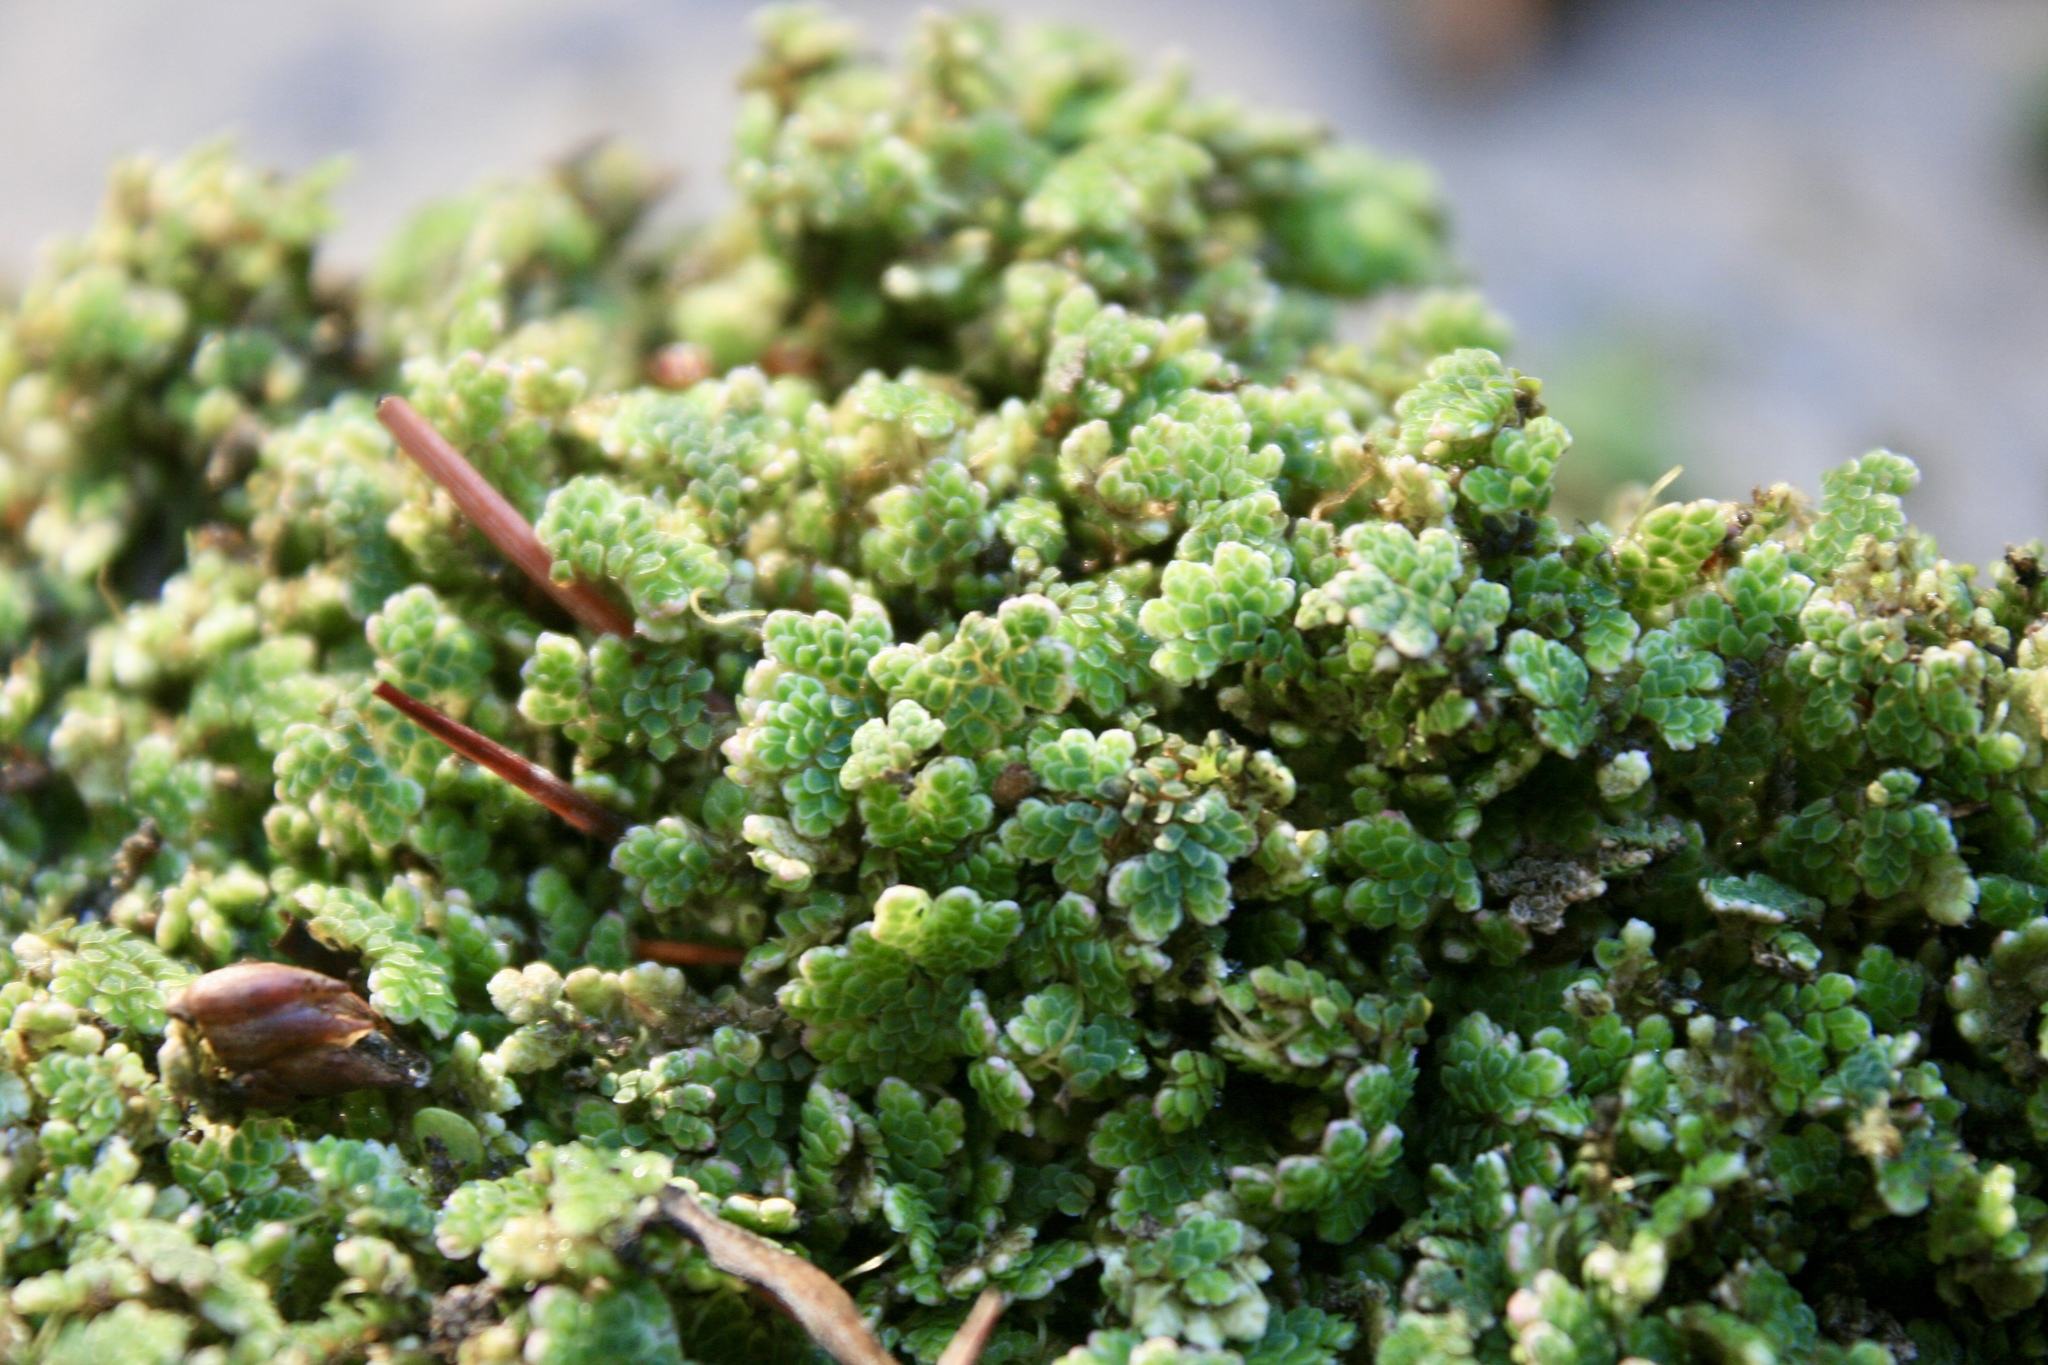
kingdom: Plantae
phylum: Tracheophyta
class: Polypodiopsida
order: Salviniales
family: Salviniaceae
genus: Azolla
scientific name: Azolla filiculoides
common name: Water fern
